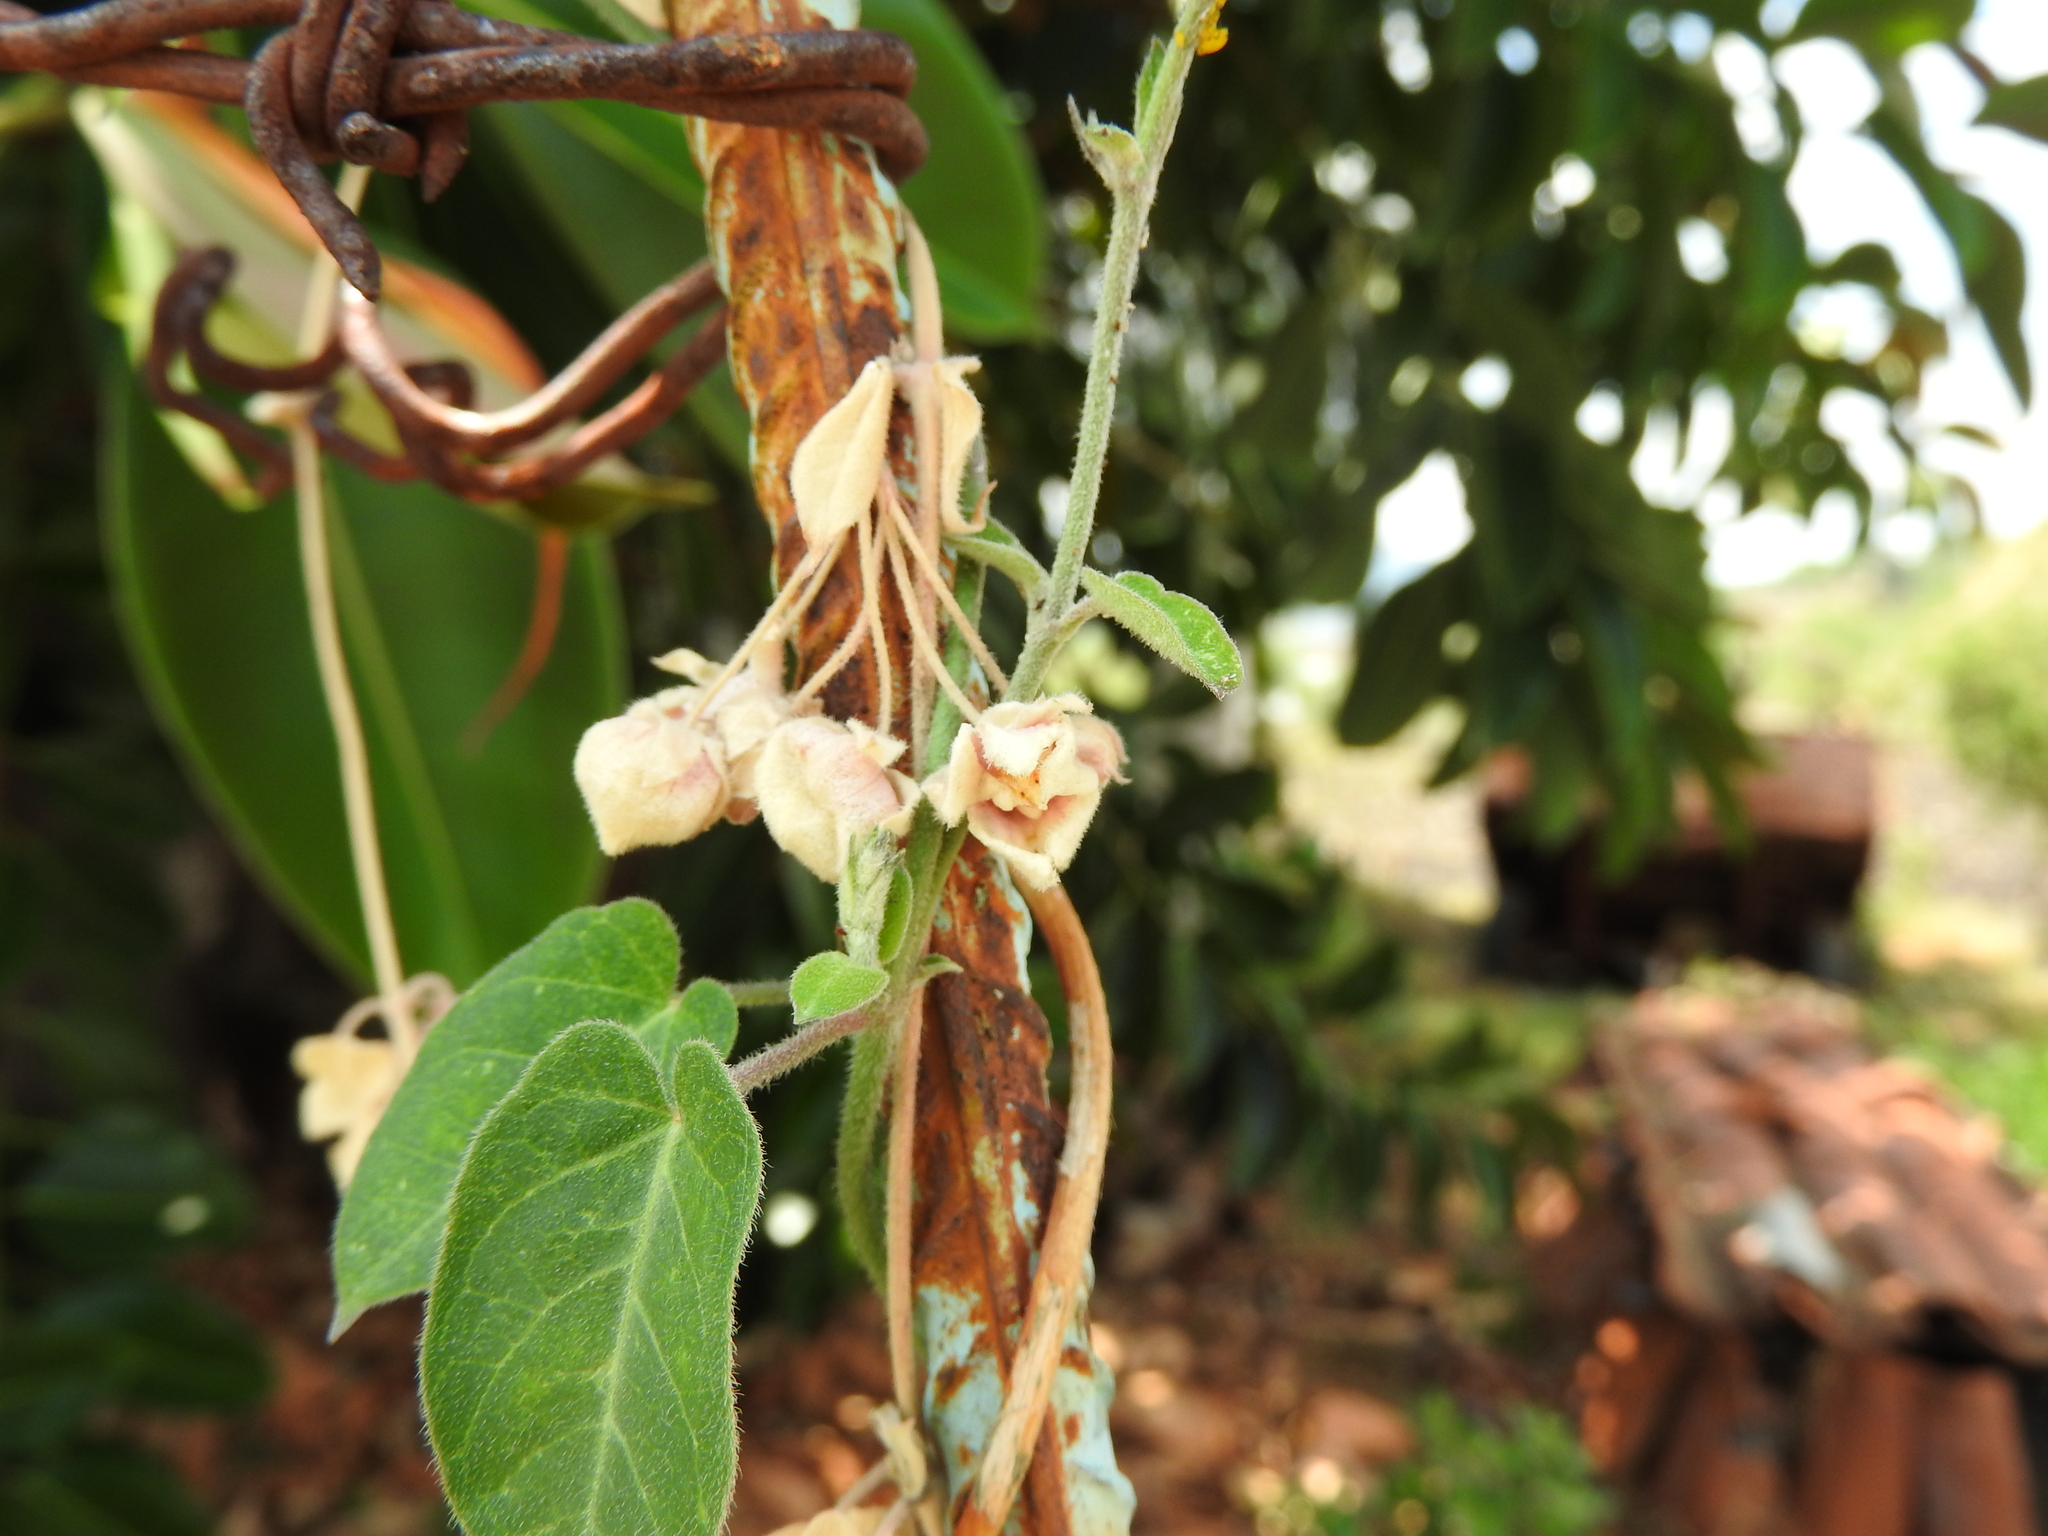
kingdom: Plantae
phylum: Tracheophyta
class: Magnoliopsida
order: Gentianales
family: Apocynaceae
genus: Funastrum
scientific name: Funastrum elegans
